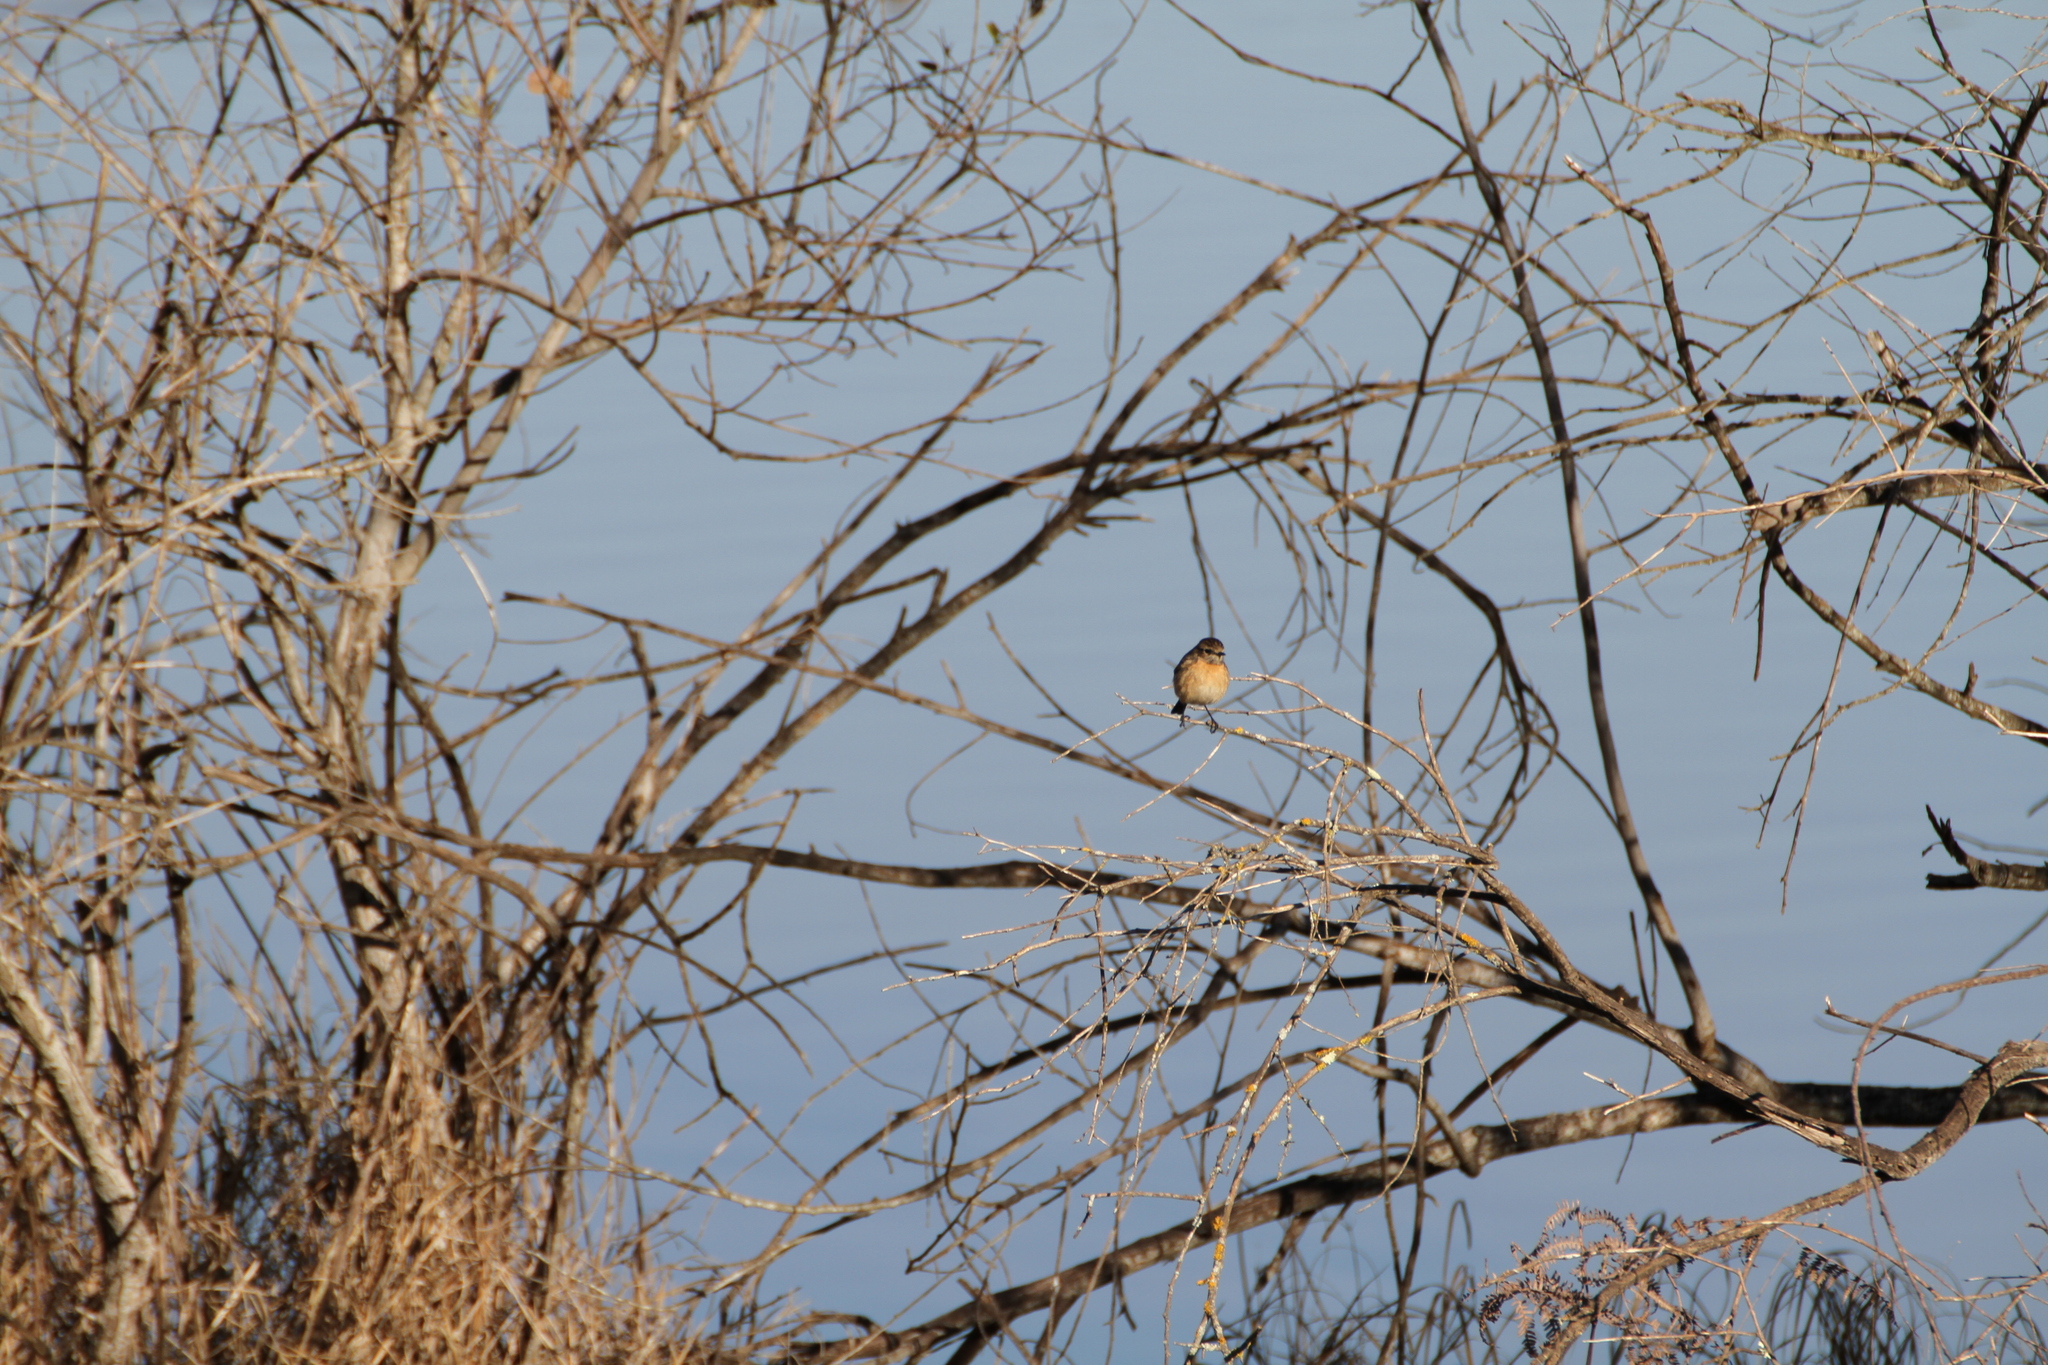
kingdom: Animalia
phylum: Chordata
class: Aves
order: Passeriformes
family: Muscicapidae
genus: Saxicola
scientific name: Saxicola rubicola
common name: European stonechat
